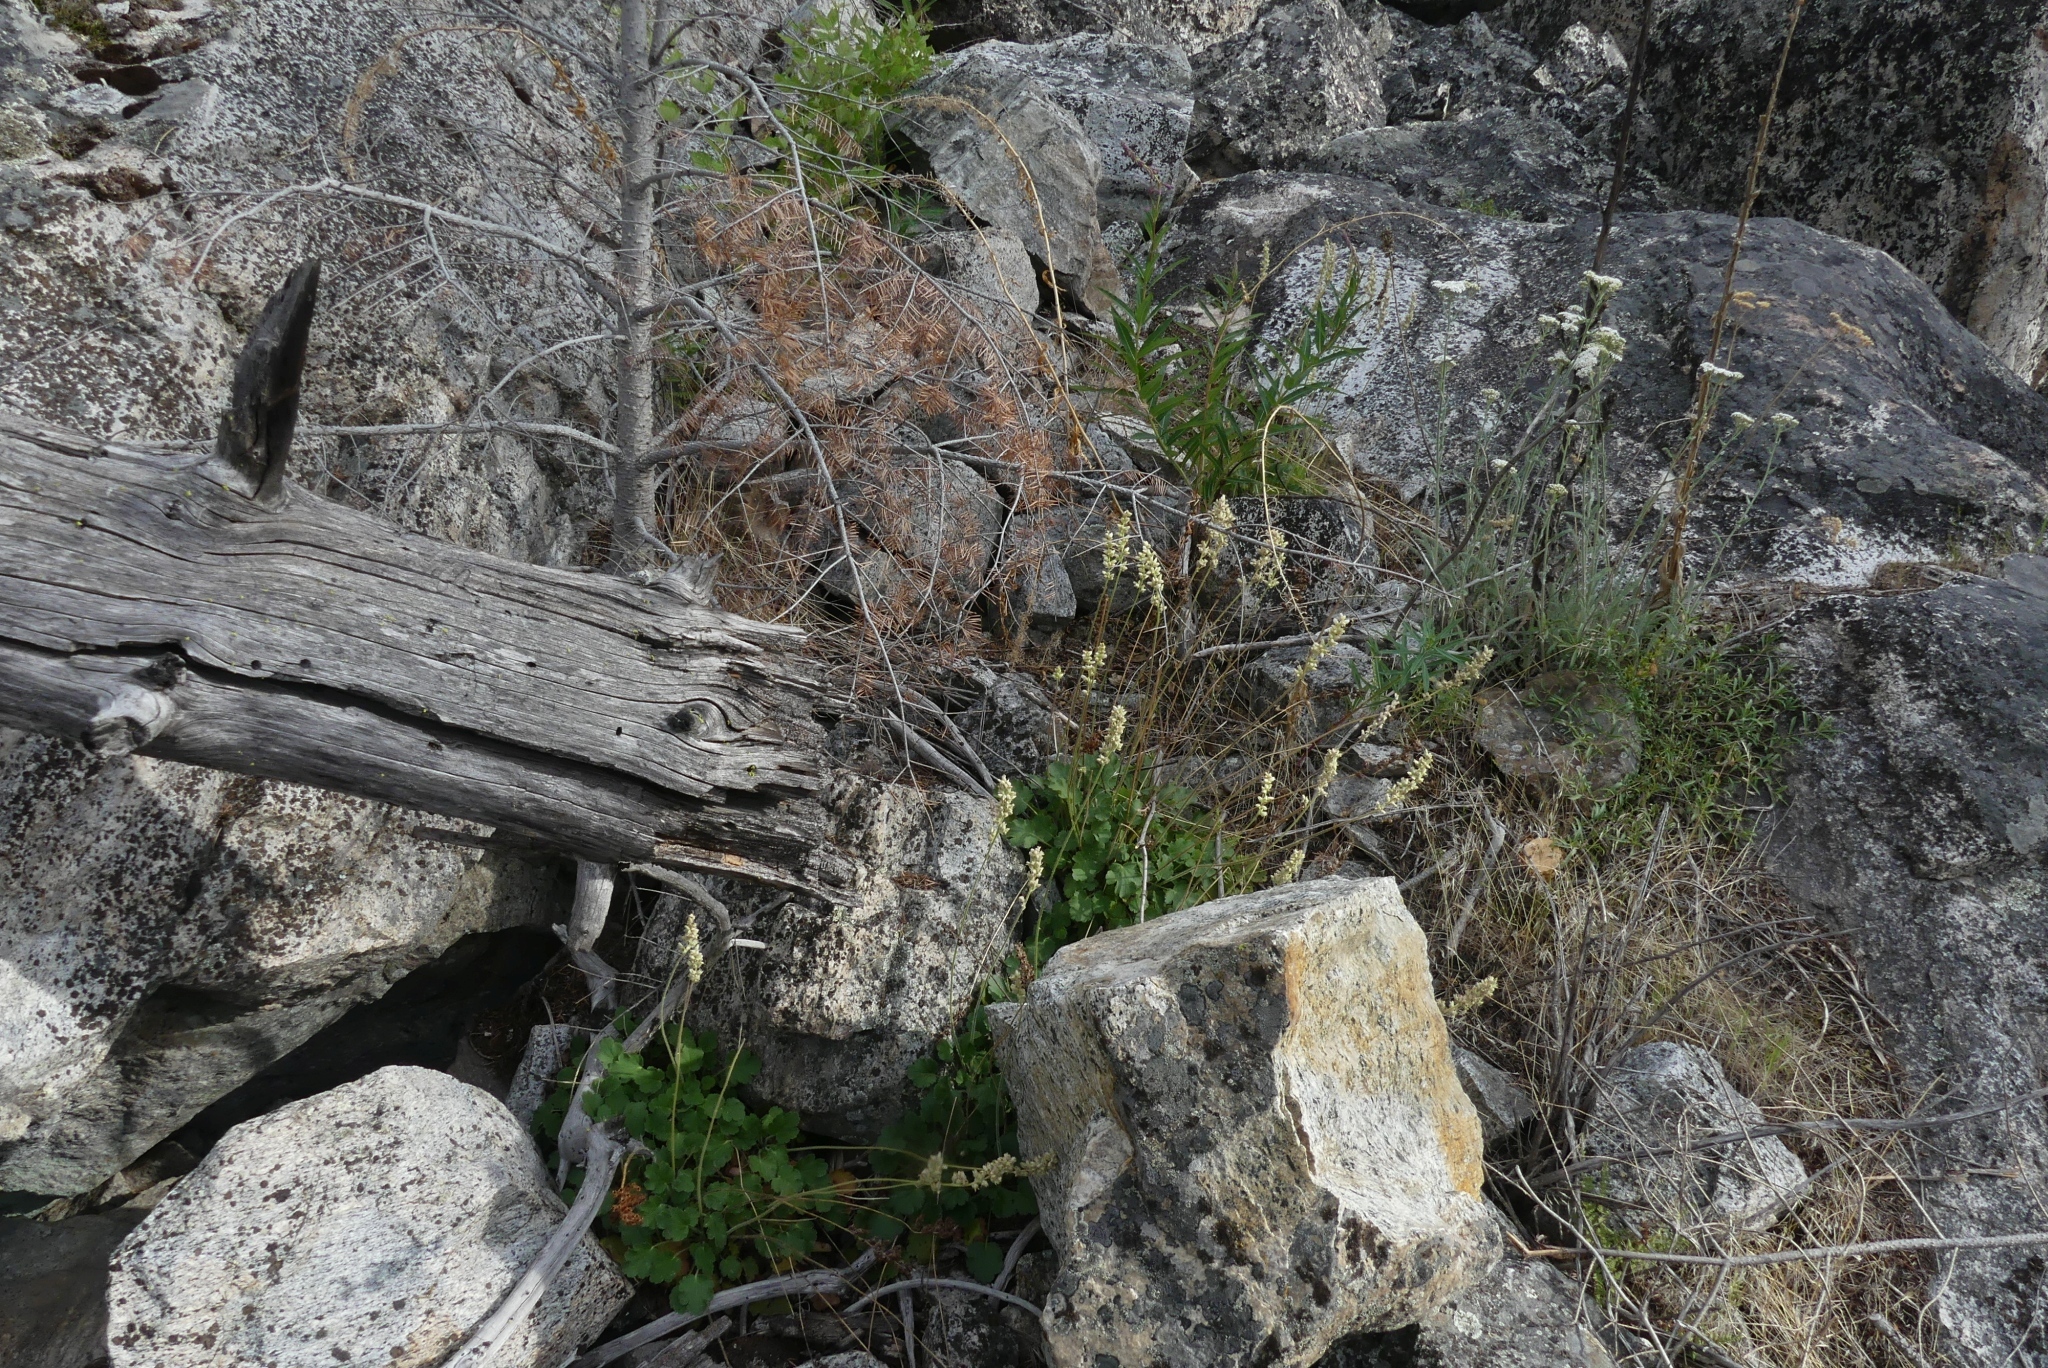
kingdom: Plantae
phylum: Tracheophyta
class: Magnoliopsida
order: Saxifragales
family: Saxifragaceae
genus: Heuchera
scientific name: Heuchera cylindrica
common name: Mat alumroot
